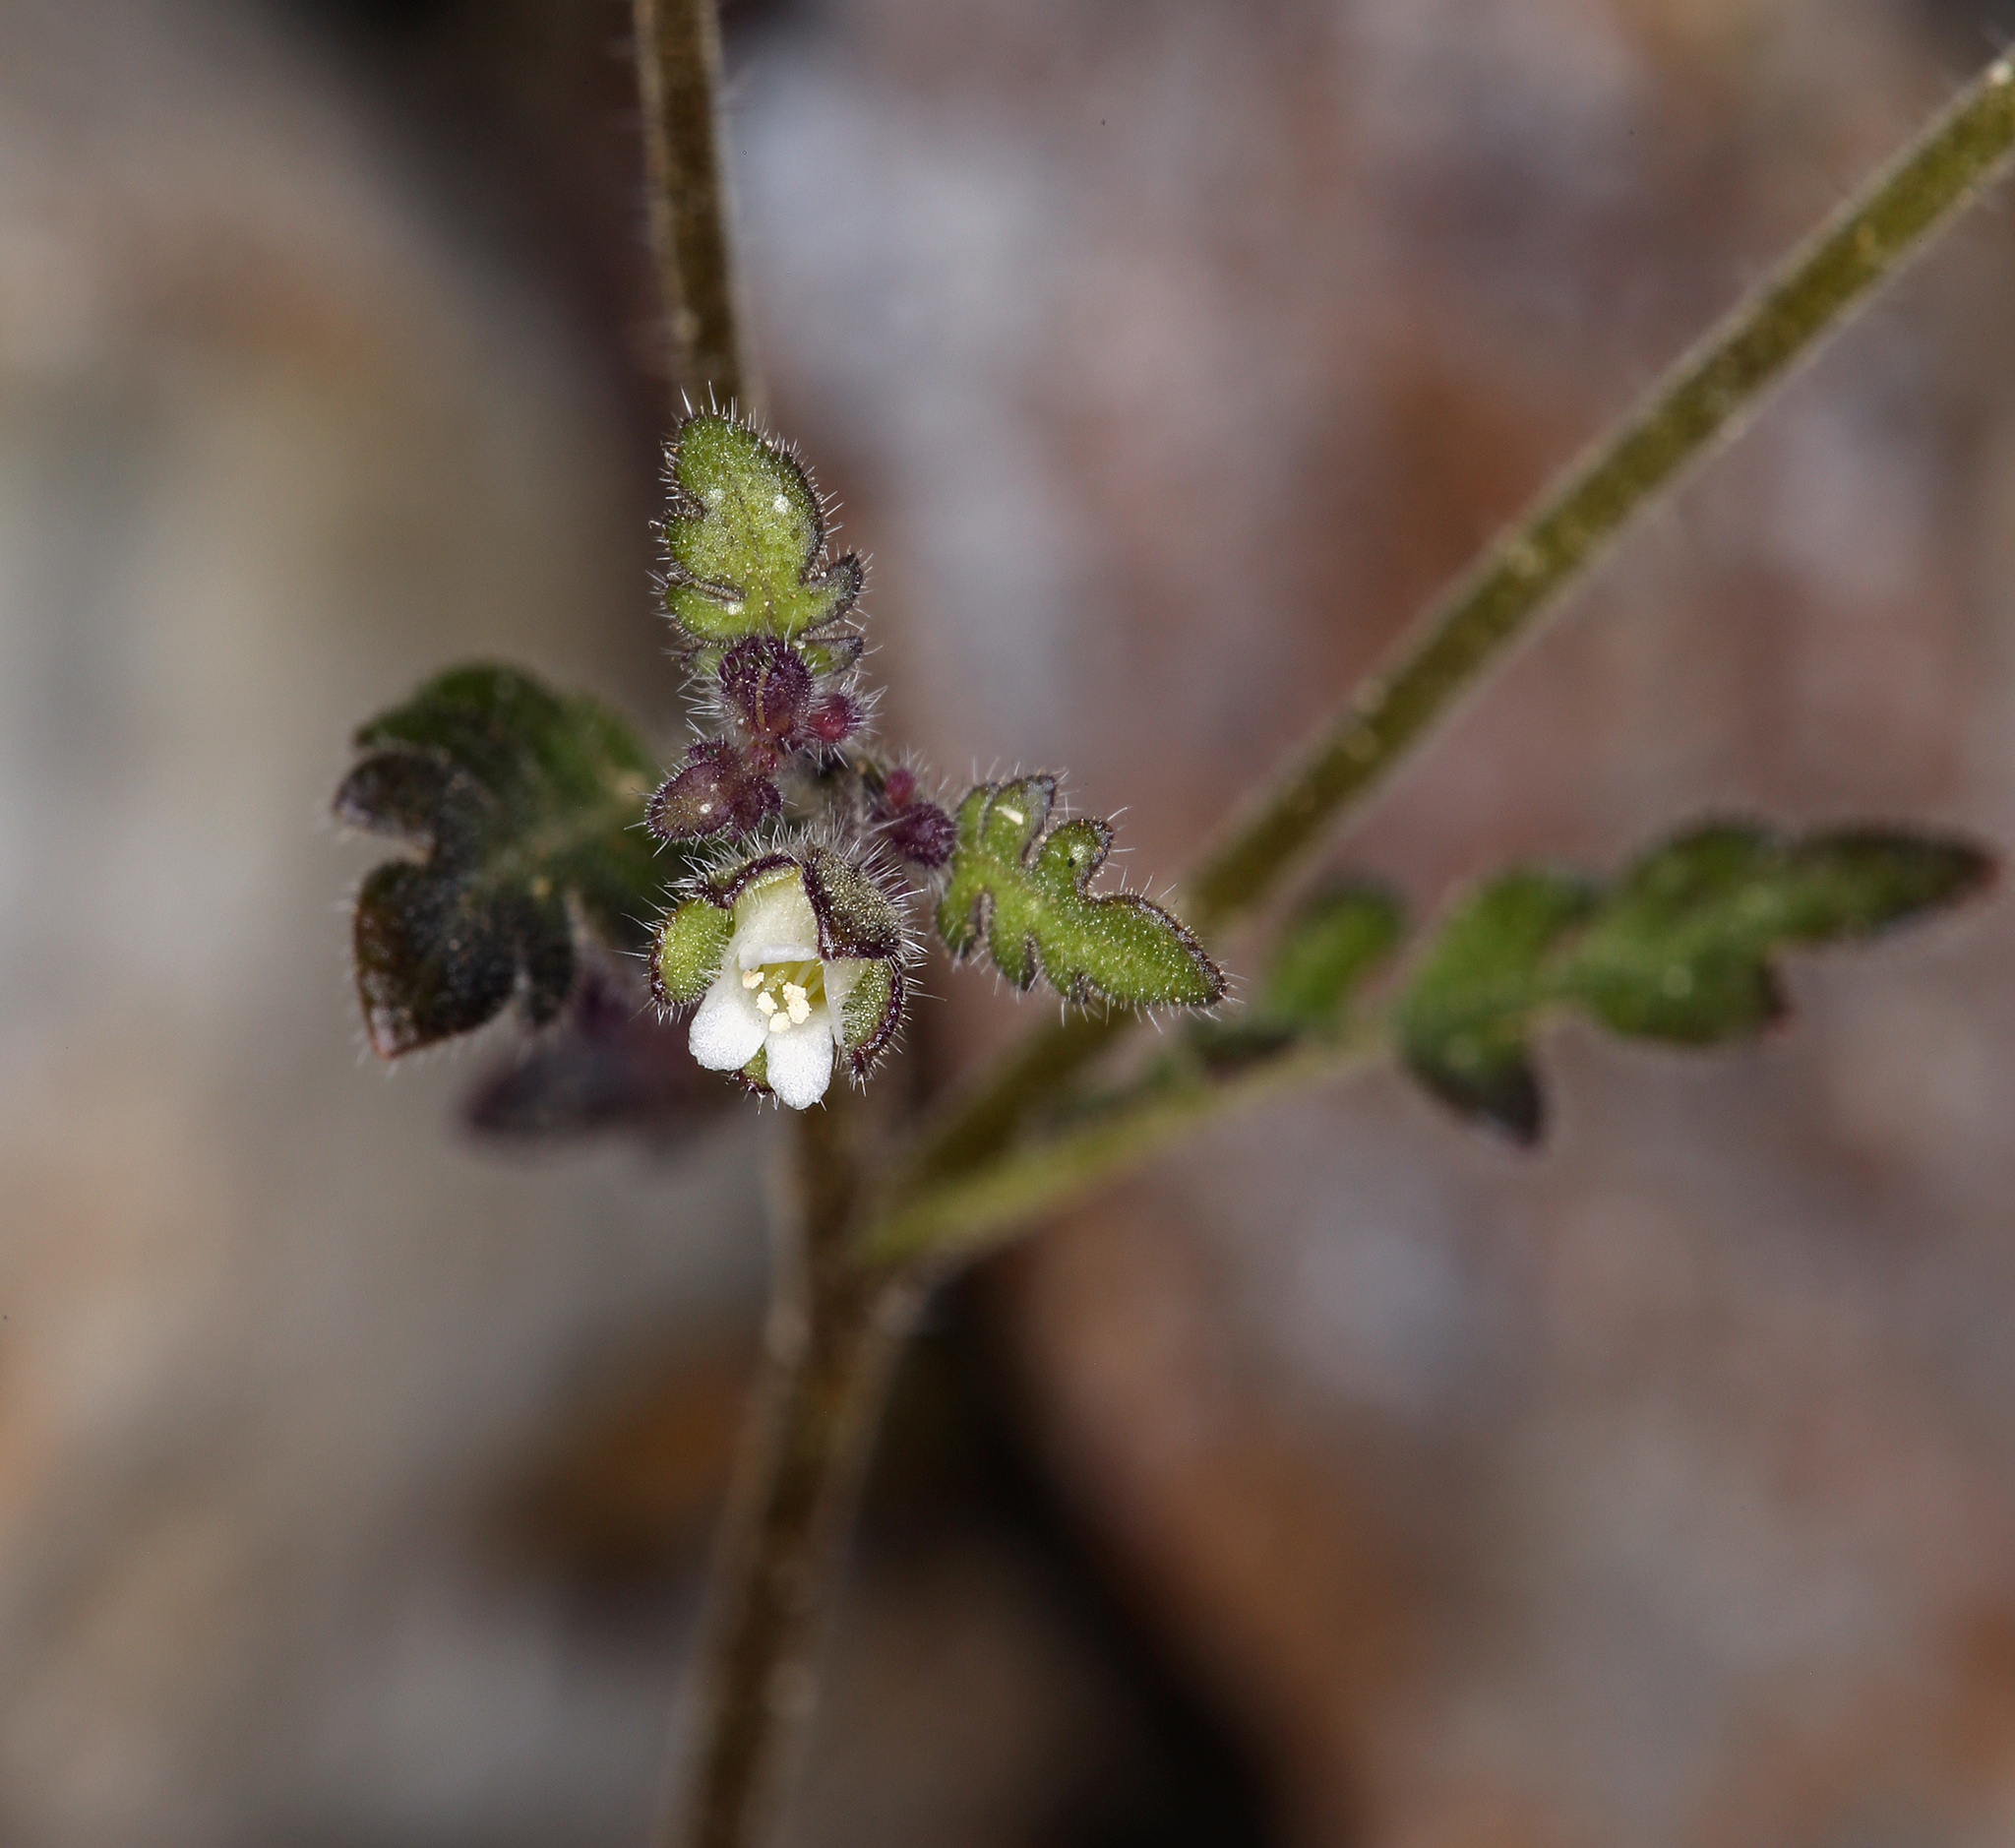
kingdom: Plantae
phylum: Tracheophyta
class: Magnoliopsida
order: Boraginales
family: Hydrophyllaceae
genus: Eucrypta
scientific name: Eucrypta micrantha
